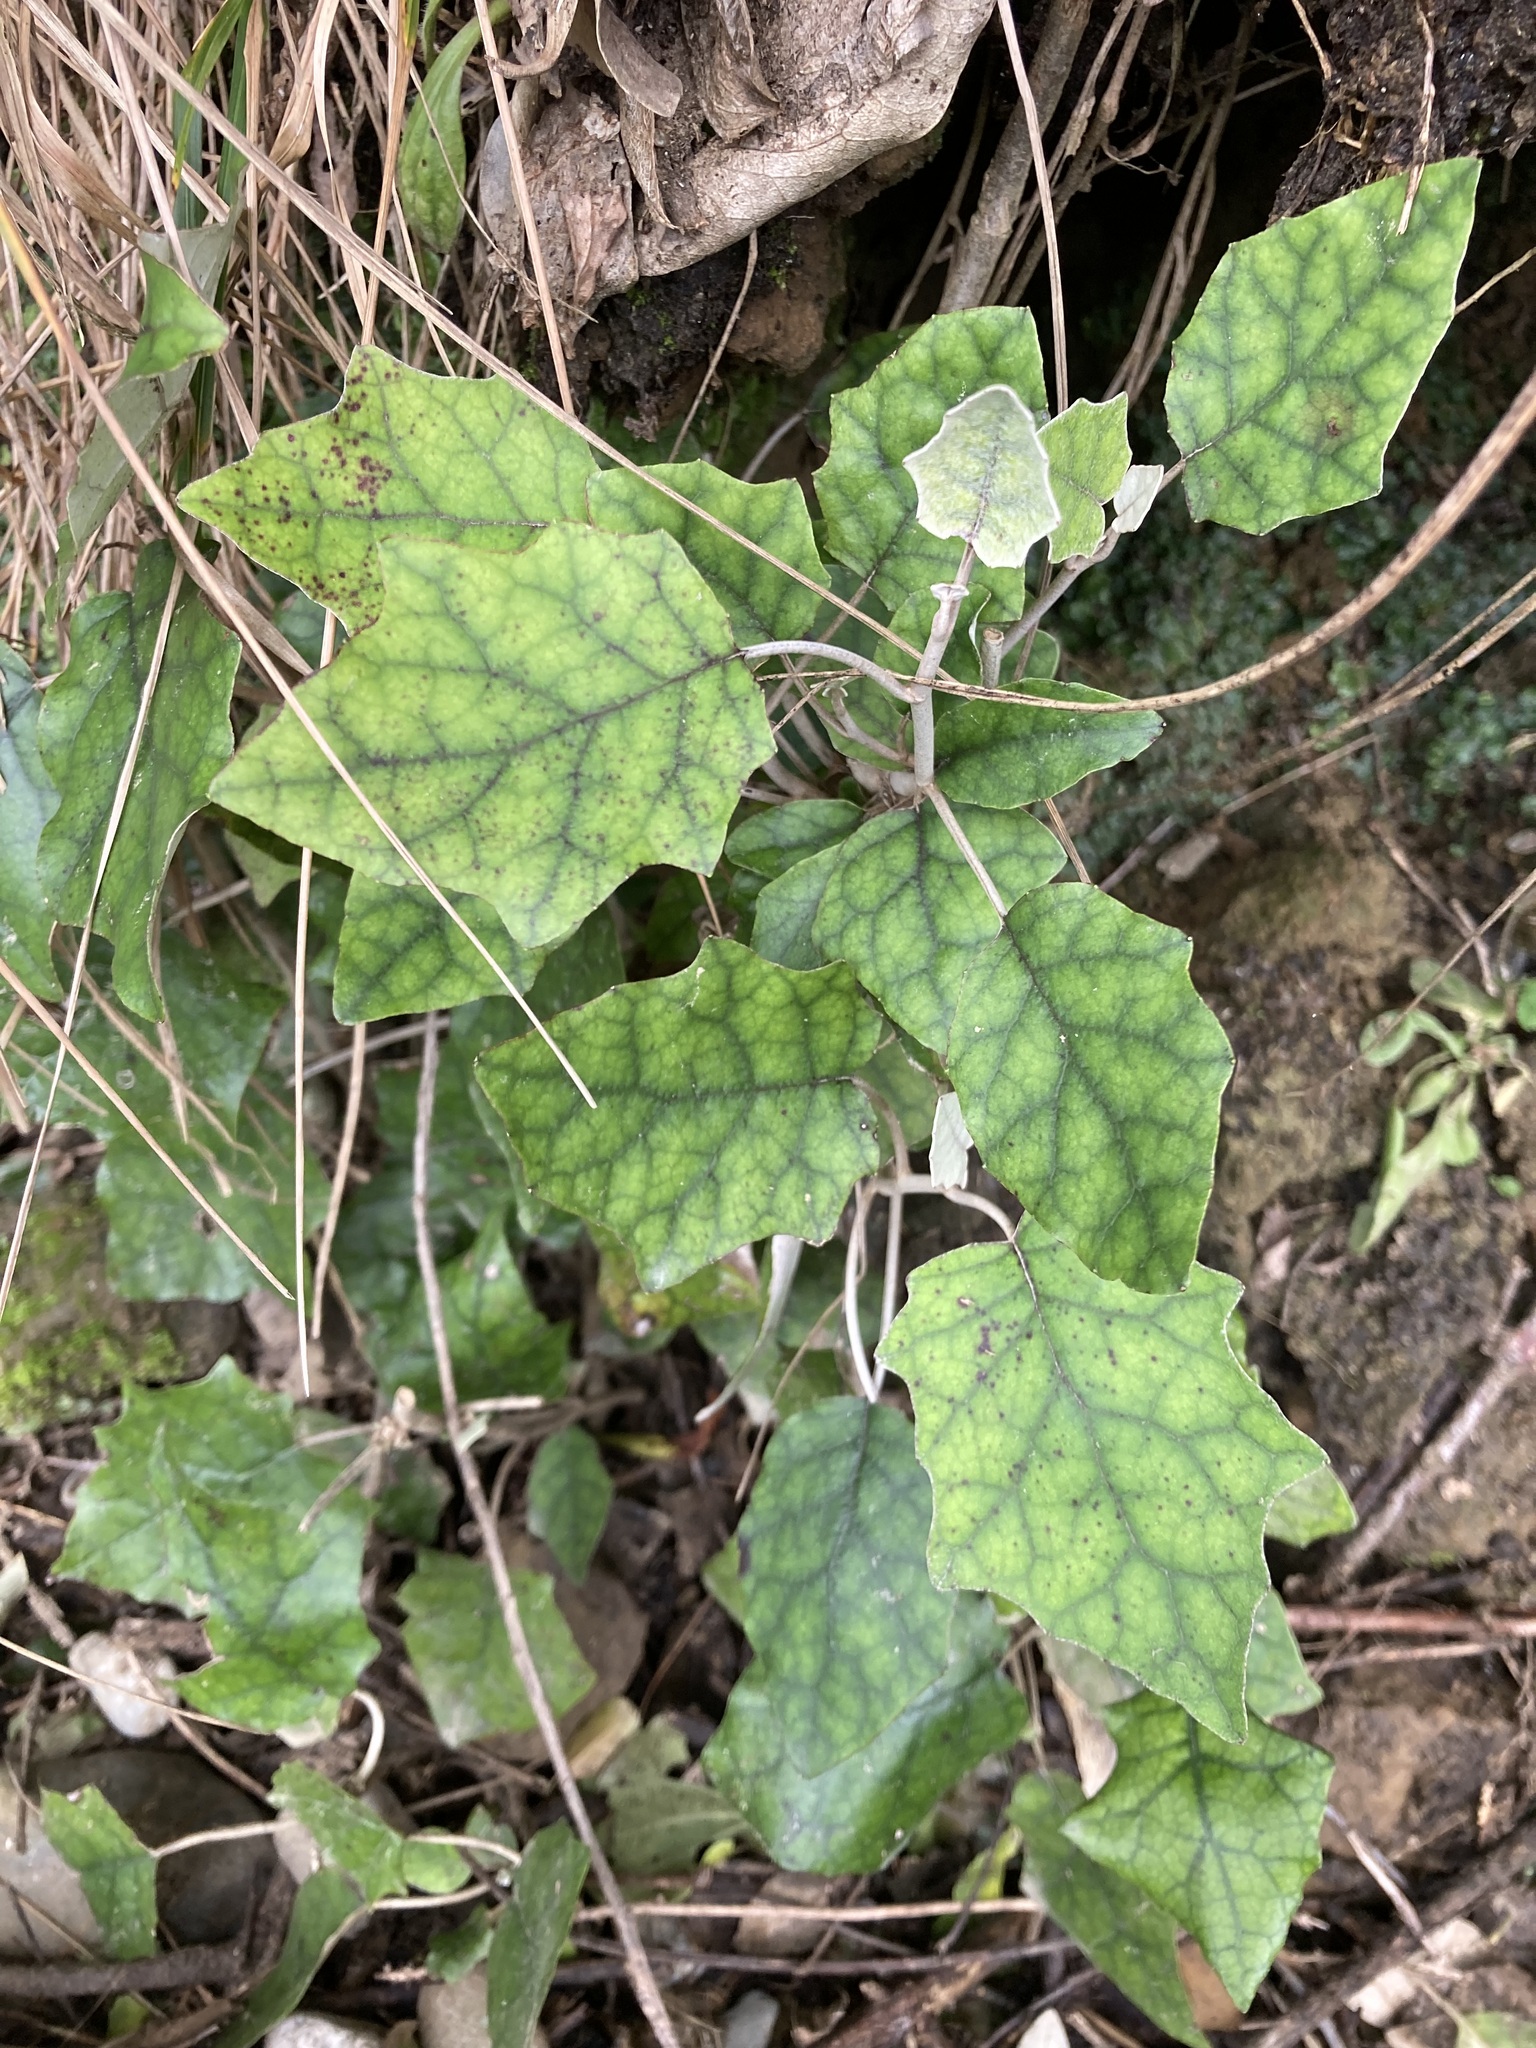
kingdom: Plantae
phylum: Tracheophyta
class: Magnoliopsida
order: Asterales
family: Asteraceae
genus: Brachyglottis
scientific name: Brachyglottis repanda
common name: Hedge ragwort
